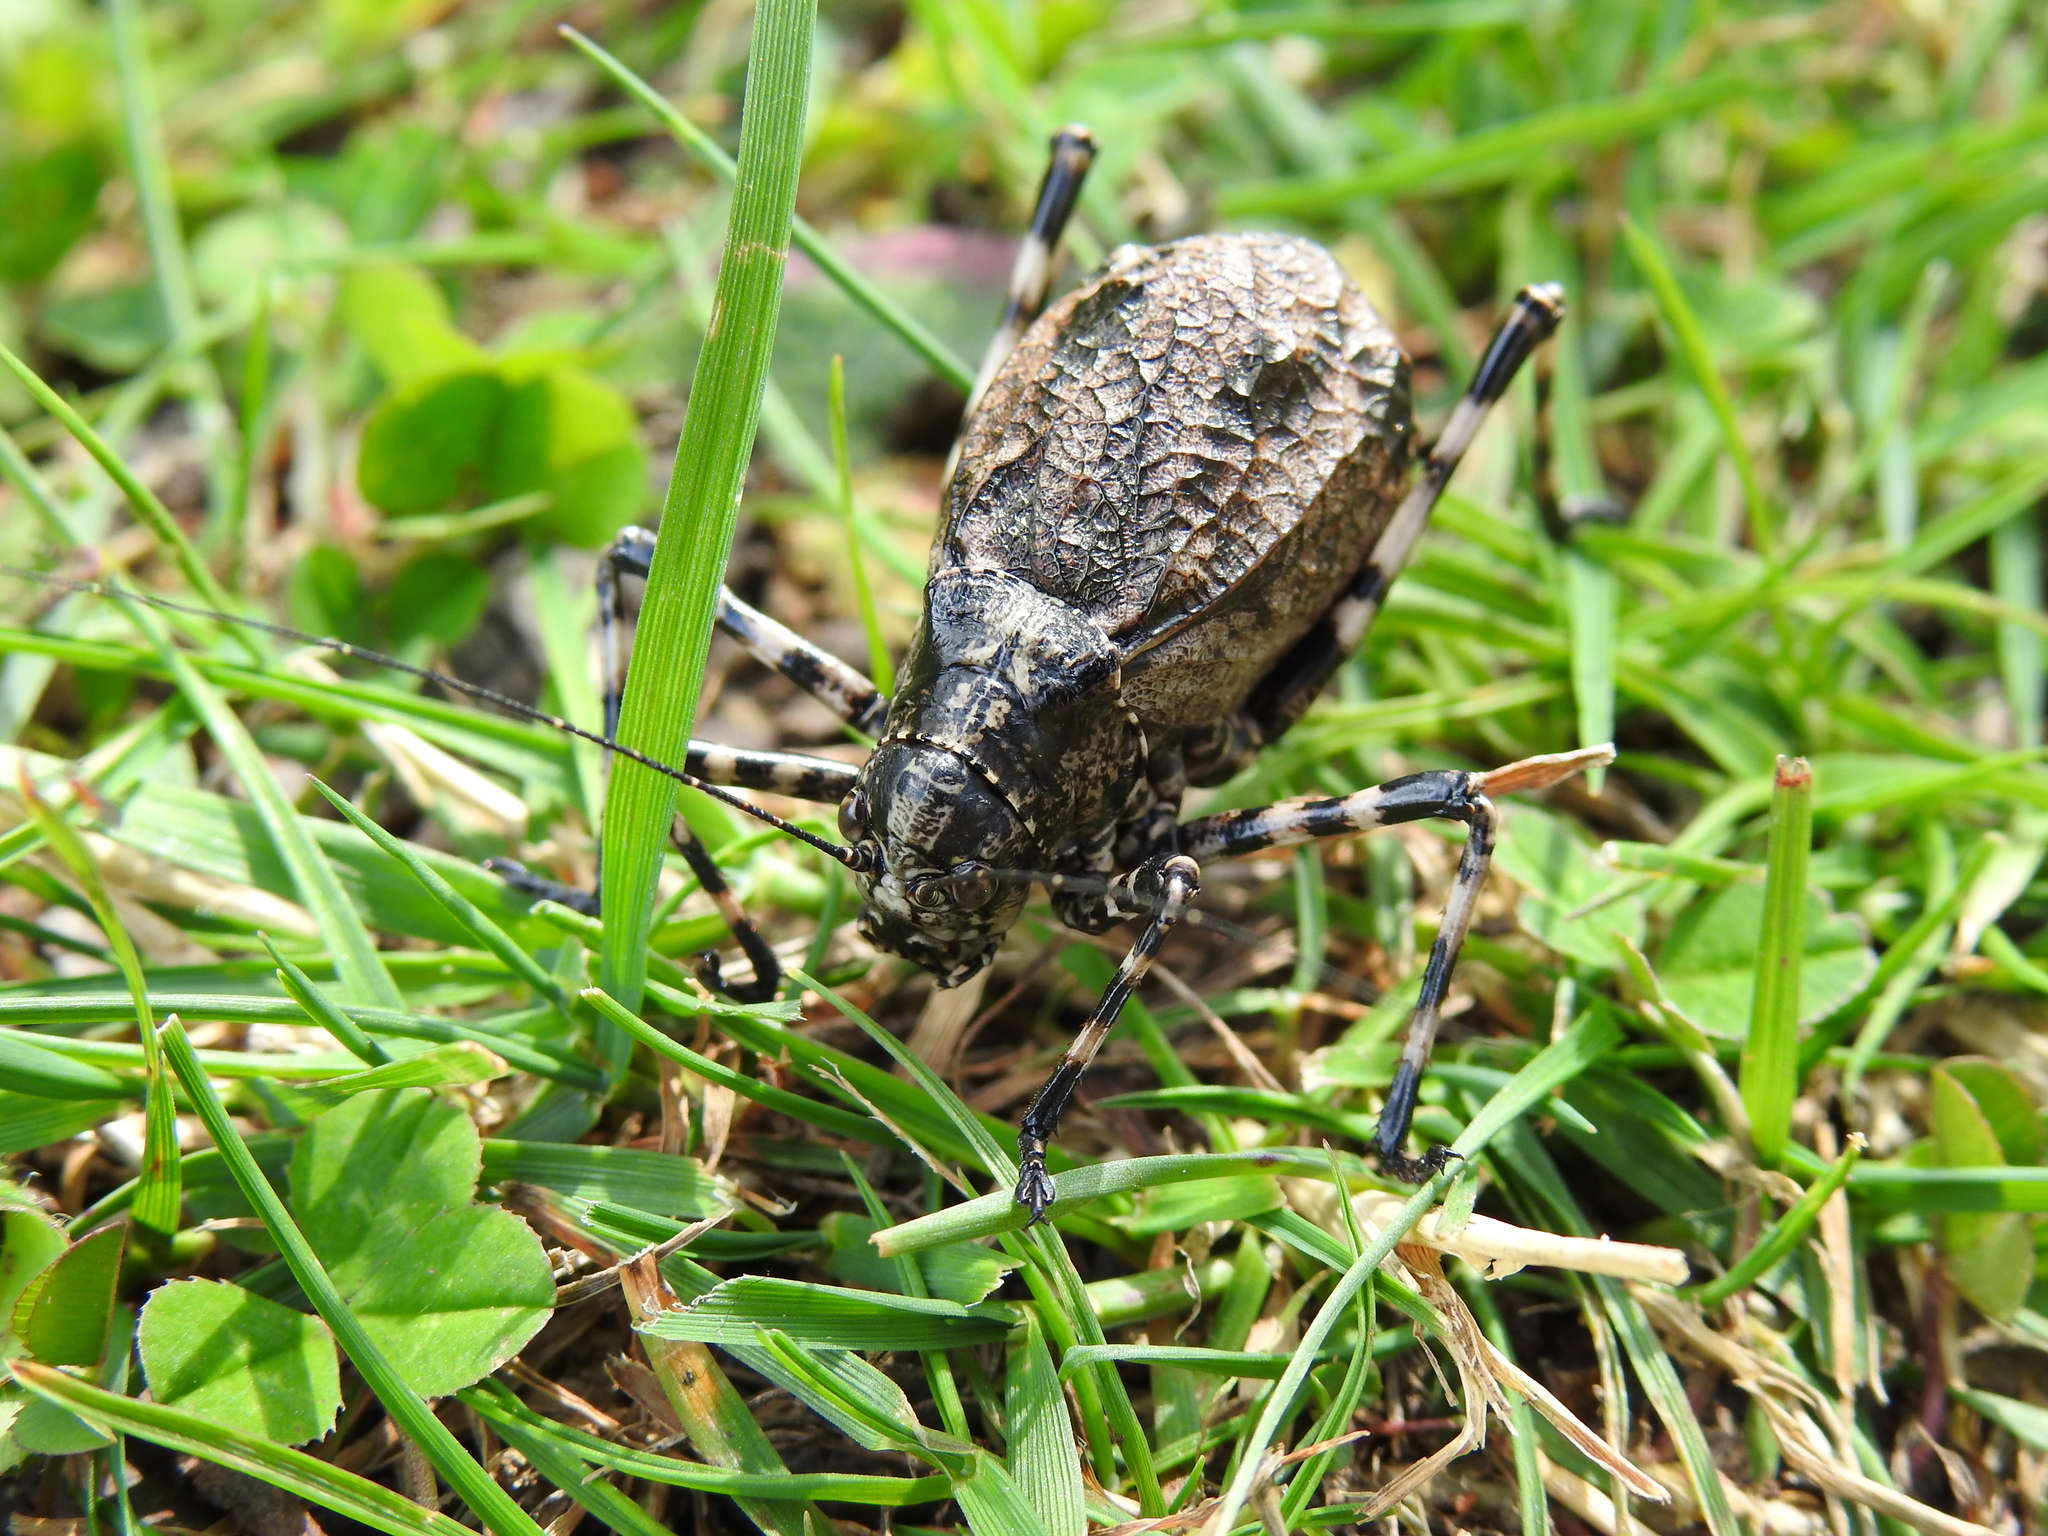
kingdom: Animalia
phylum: Arthropoda
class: Insecta
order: Orthoptera
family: Tettigoniidae
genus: Acripeza
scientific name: Acripeza reticulata
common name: Mountain katydid
